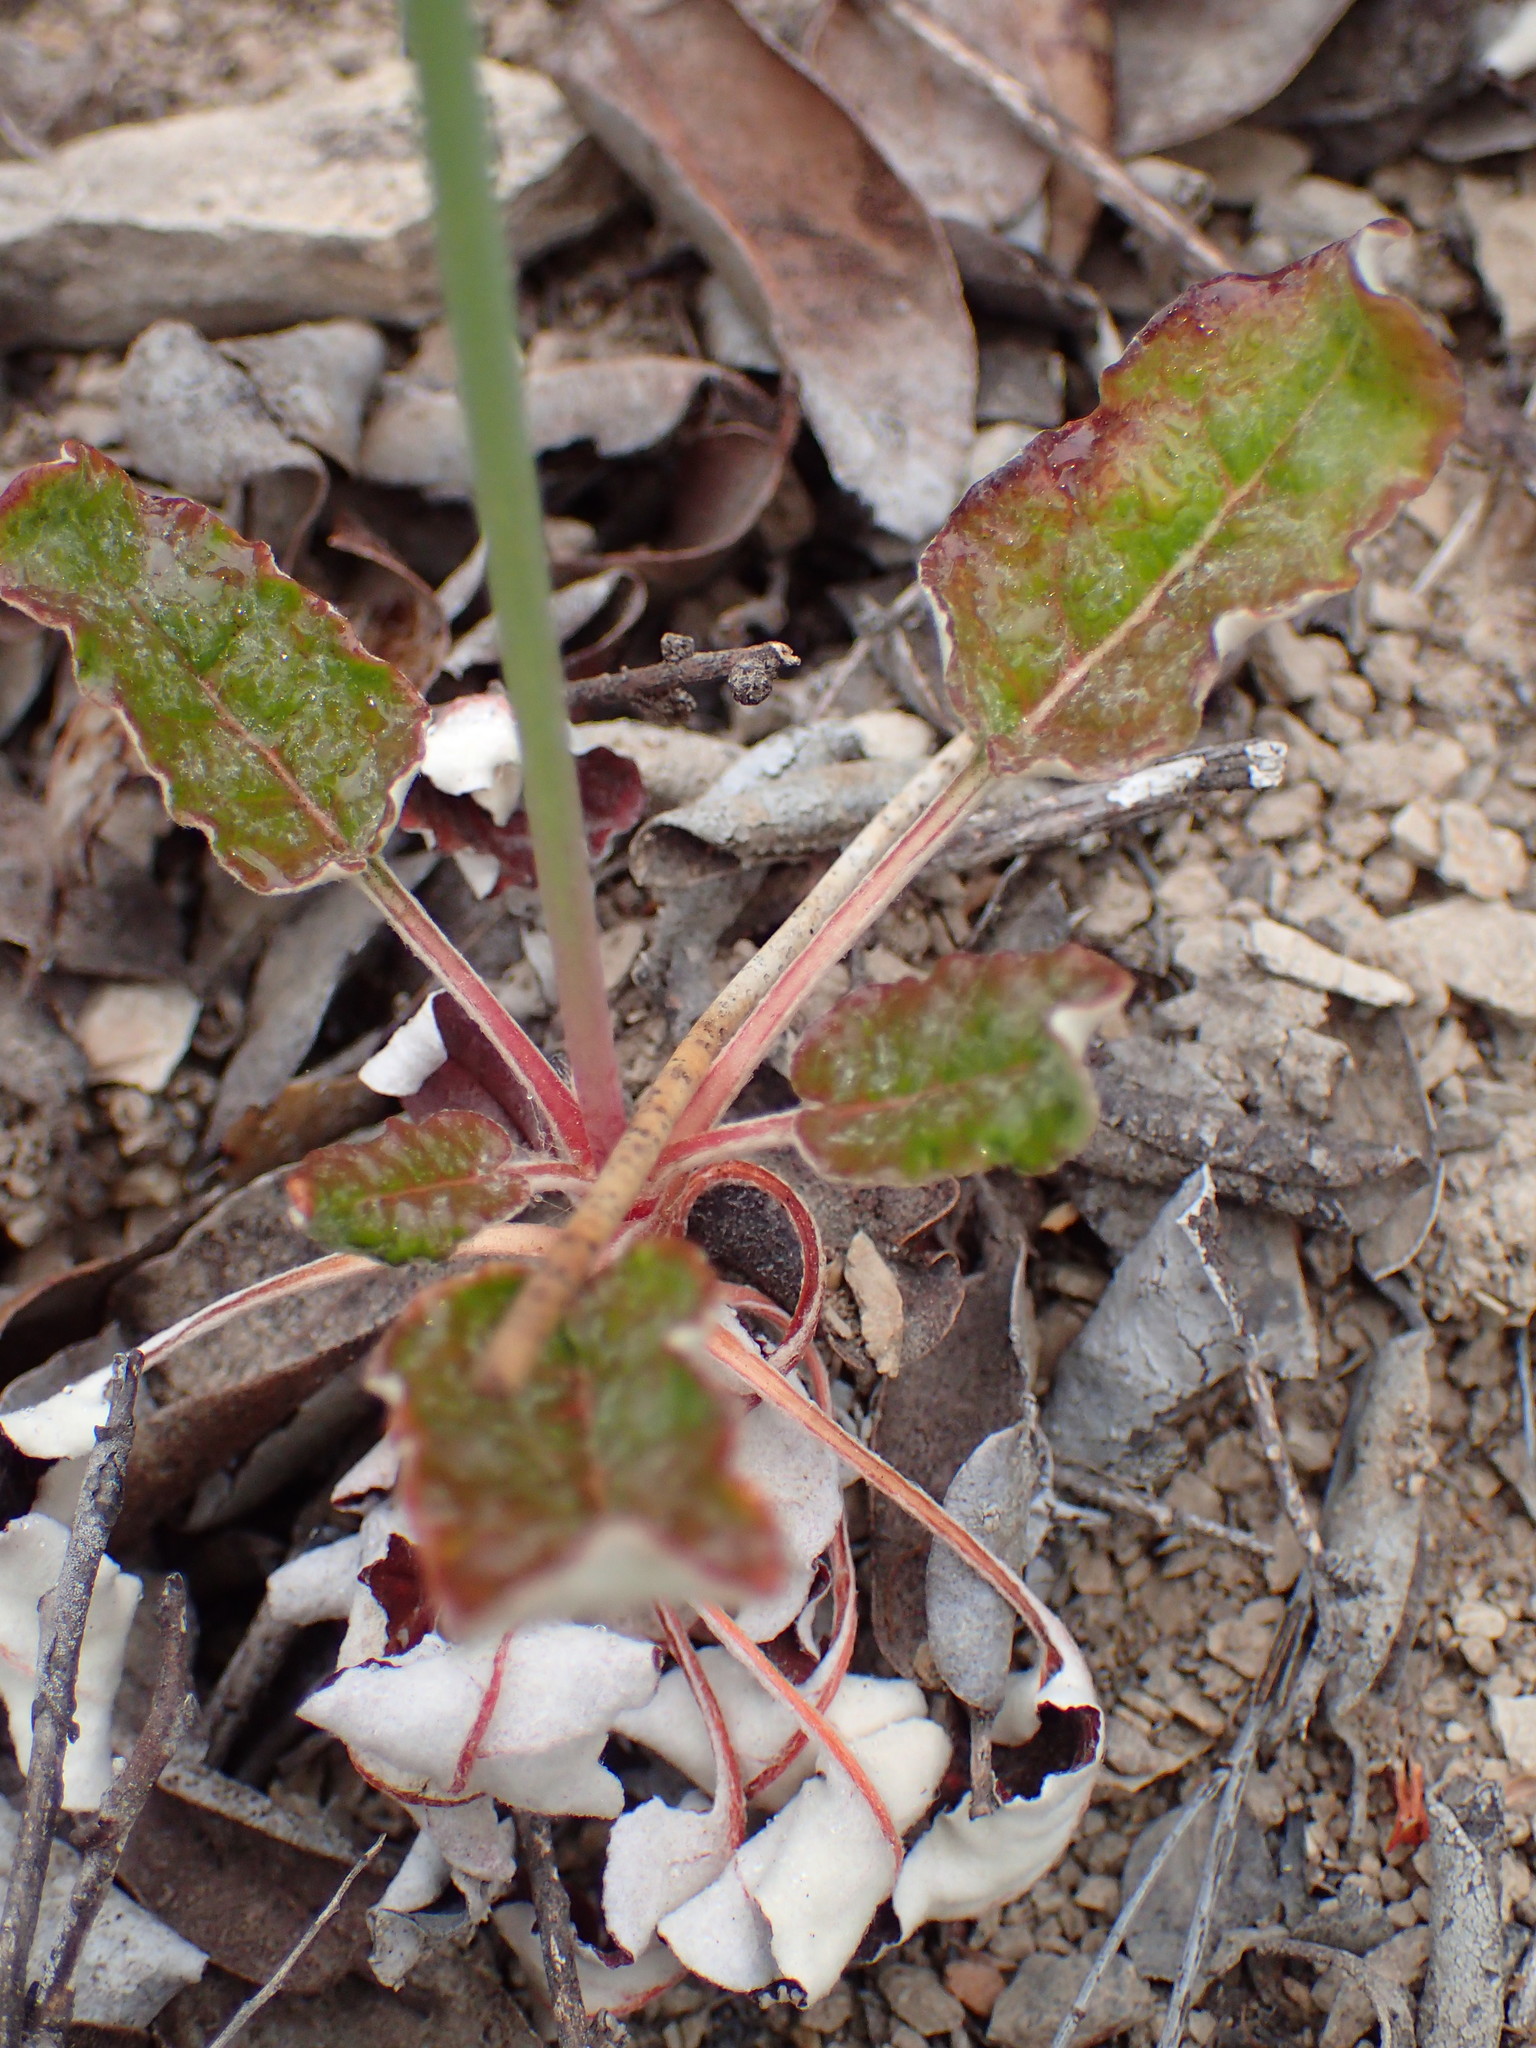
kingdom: Plantae
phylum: Tracheophyta
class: Magnoliopsida
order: Caryophyllales
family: Polygonaceae
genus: Eriogonum
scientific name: Eriogonum nudum
